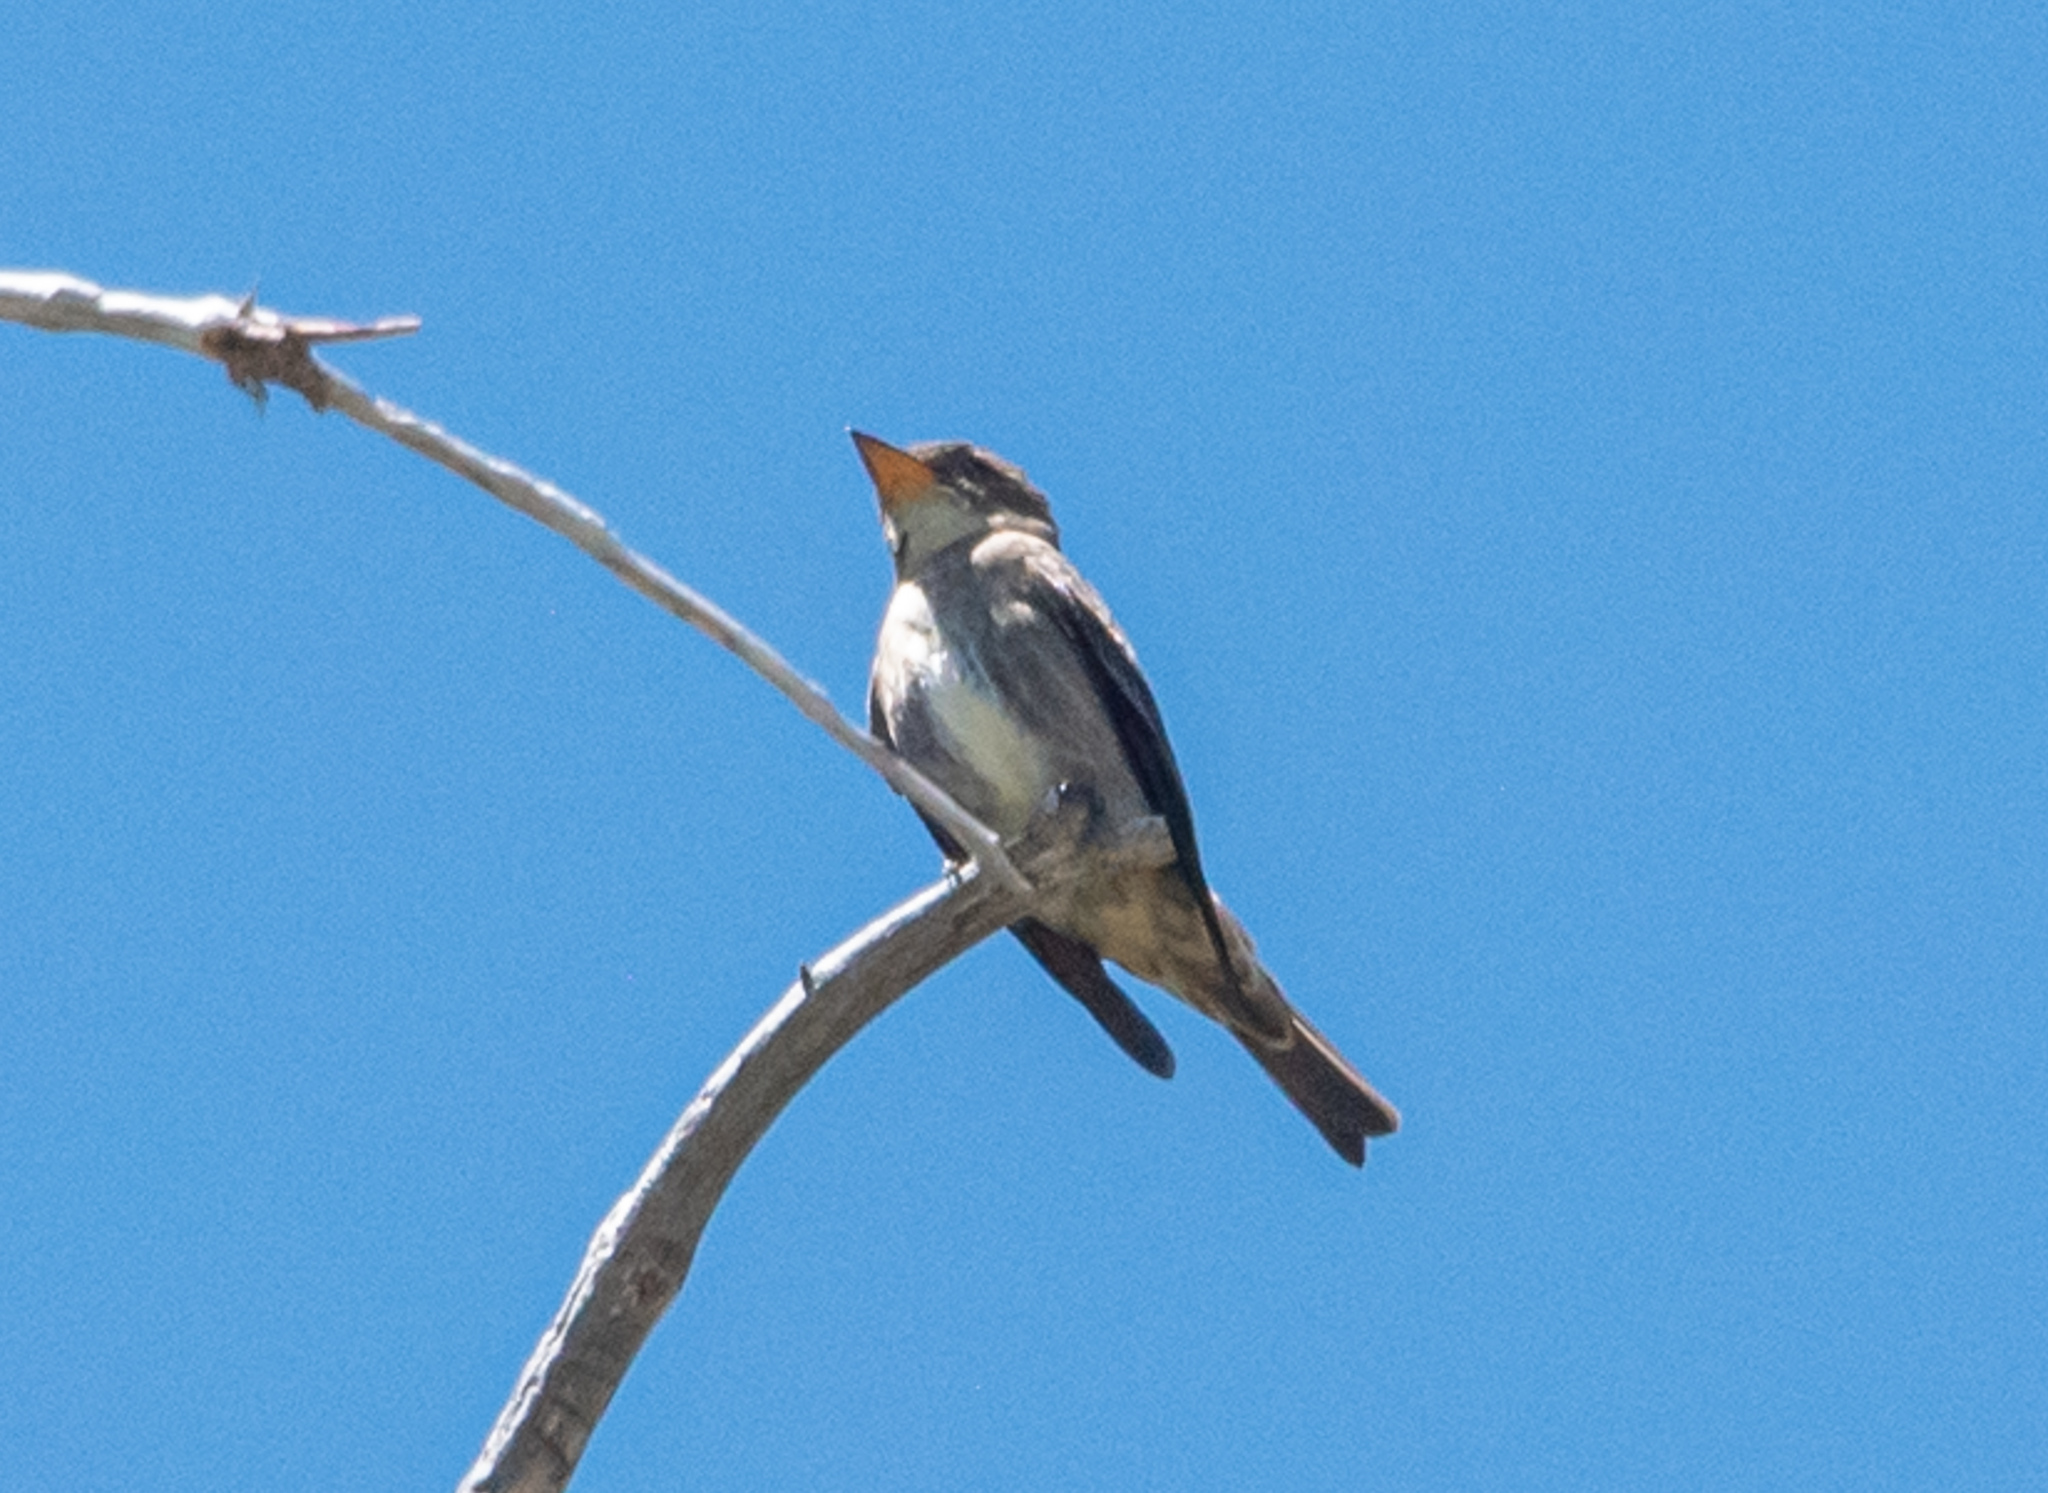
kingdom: Animalia
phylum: Chordata
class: Aves
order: Passeriformes
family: Tyrannidae
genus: Contopus
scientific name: Contopus cooperi
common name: Olive-sided flycatcher
